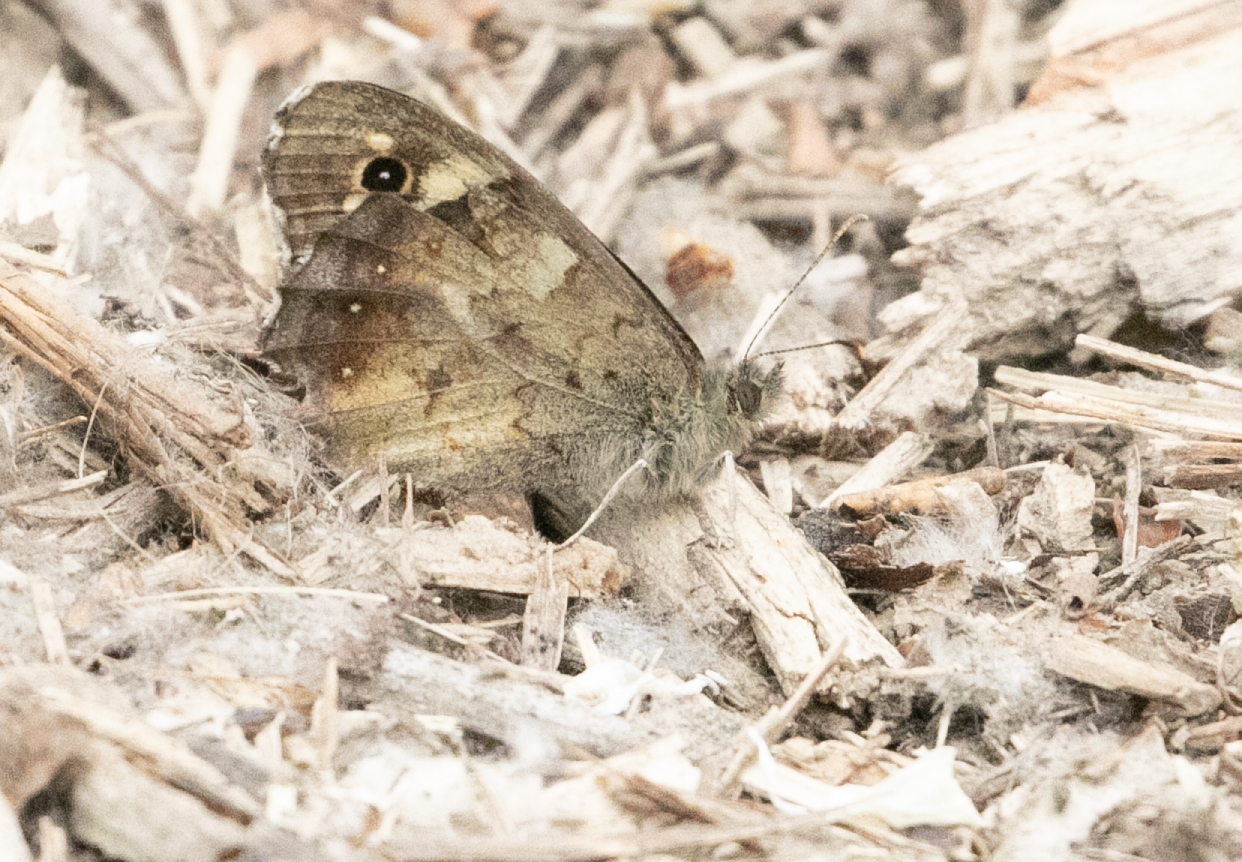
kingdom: Animalia
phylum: Arthropoda
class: Insecta
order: Lepidoptera
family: Nymphalidae
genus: Pararge
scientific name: Pararge aegeria
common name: Speckled wood
